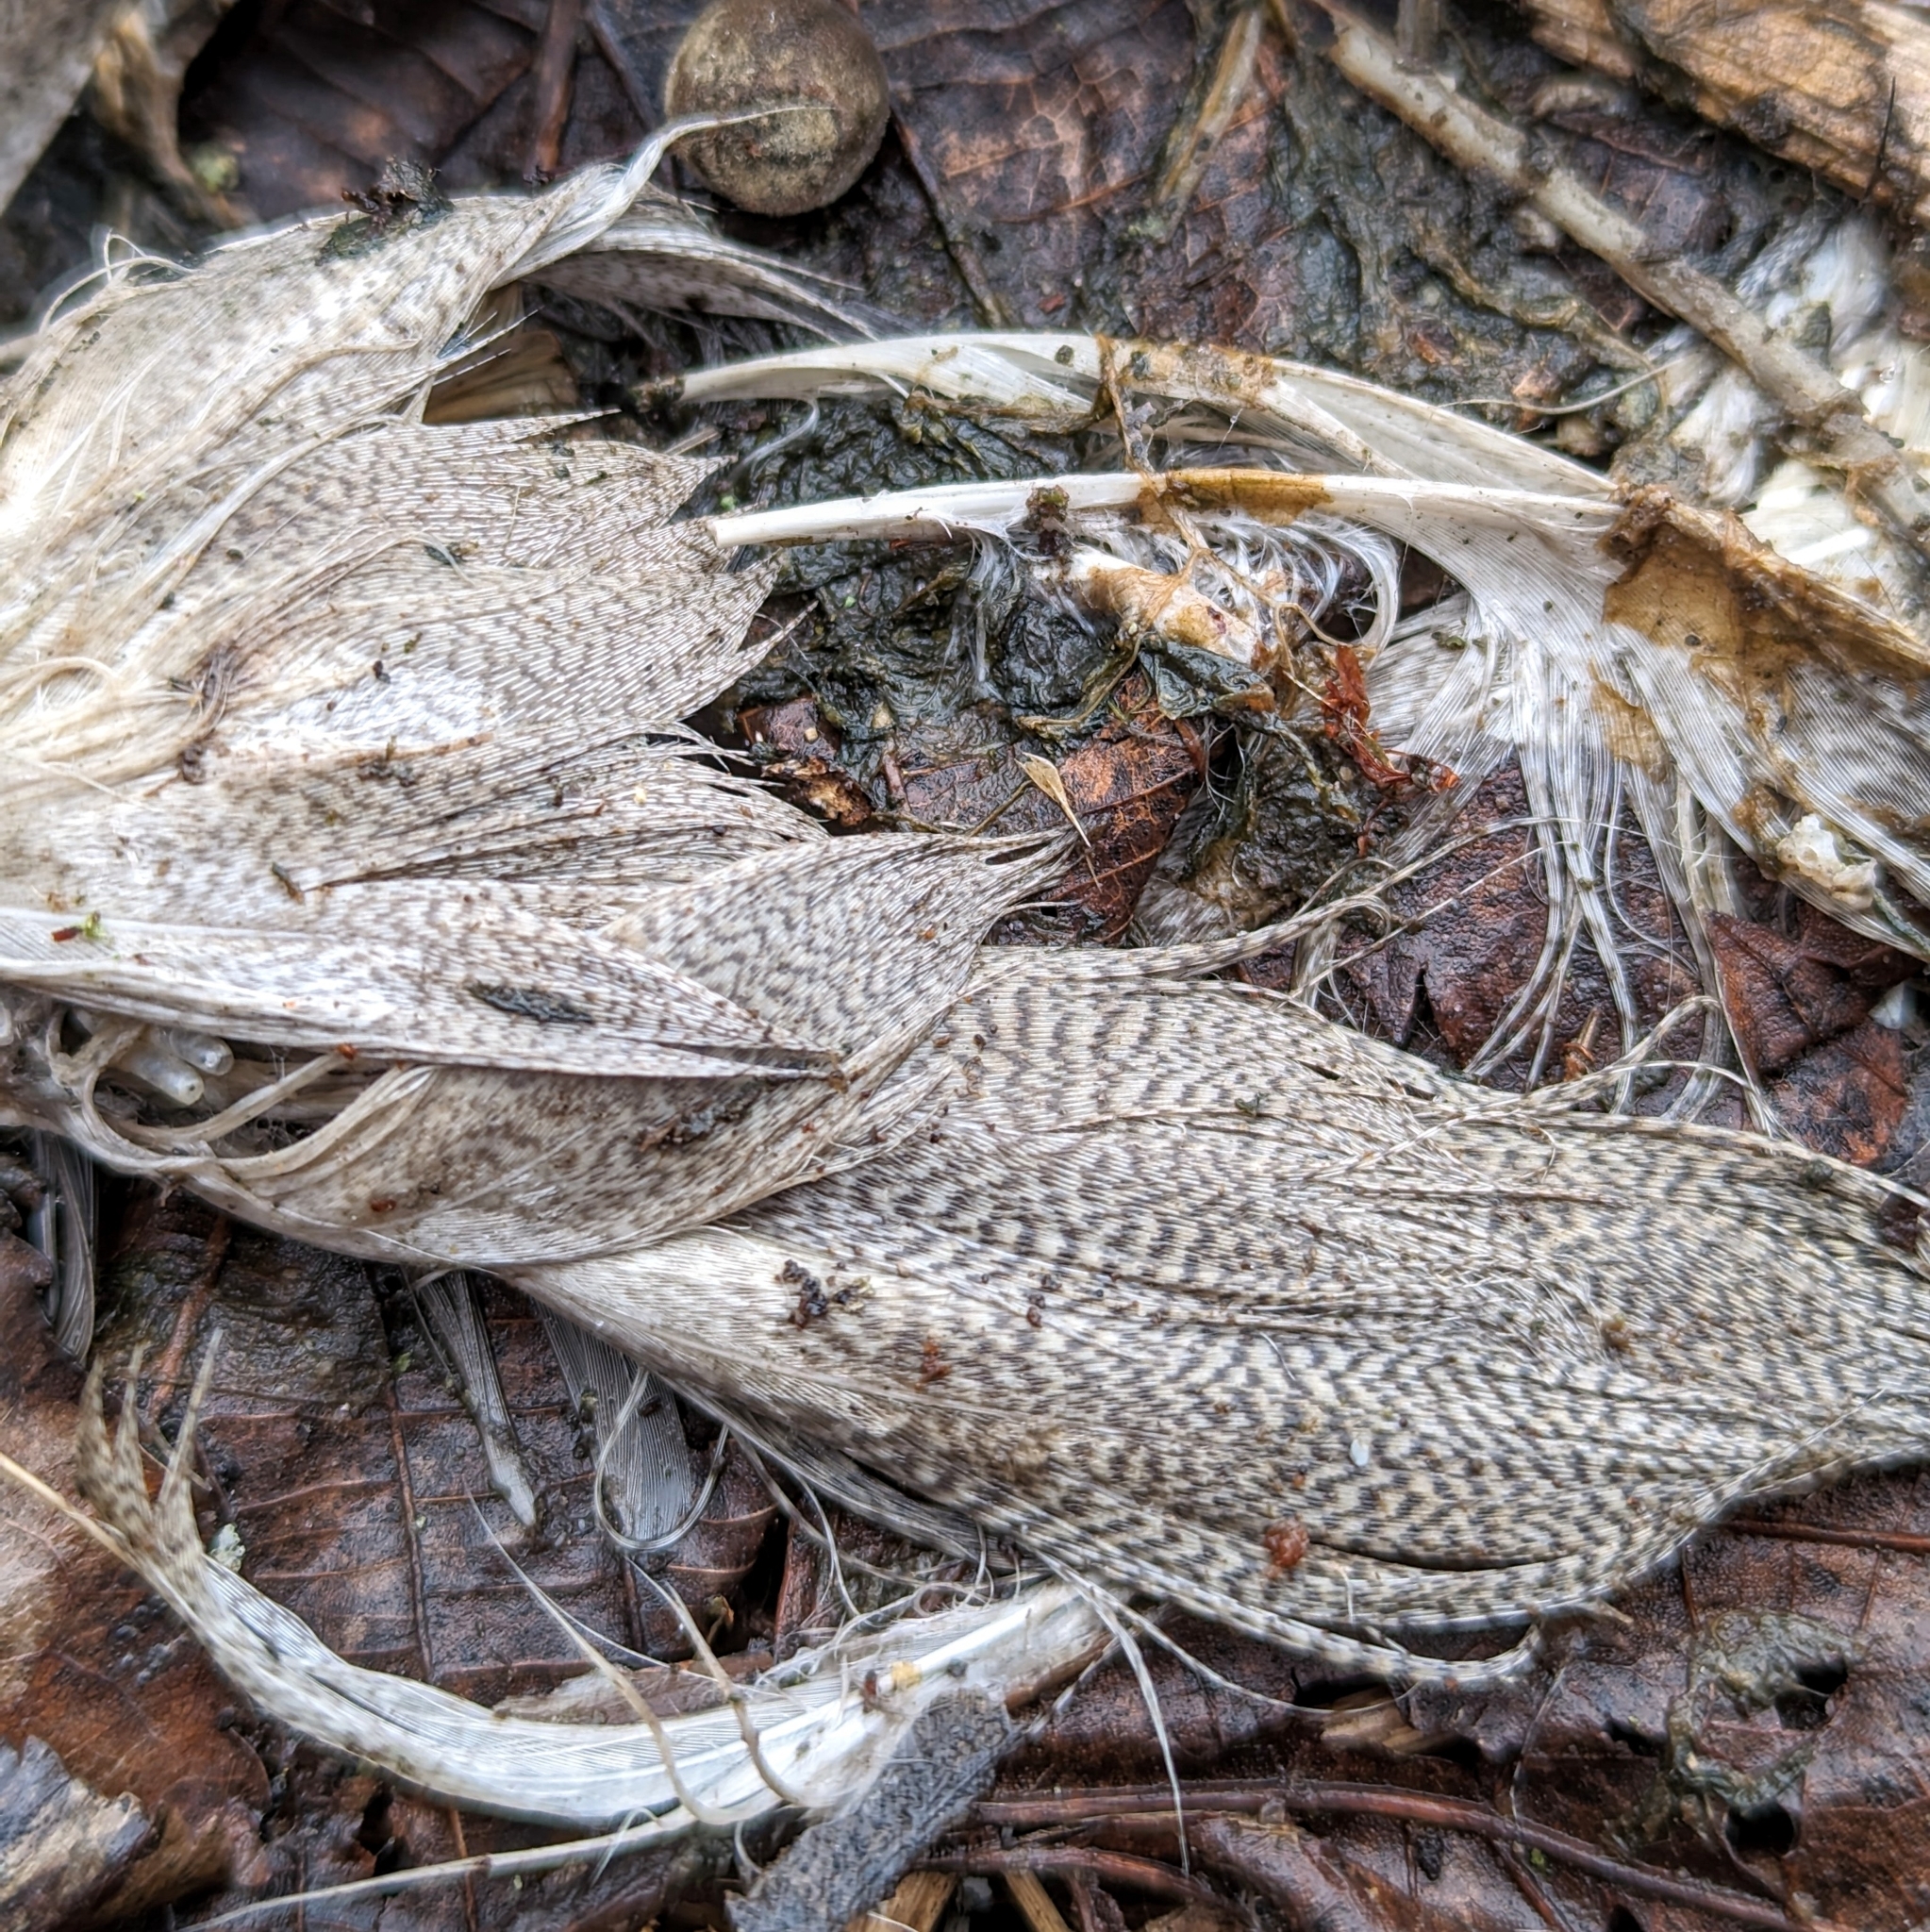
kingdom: Animalia
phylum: Chordata
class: Aves
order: Anseriformes
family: Anatidae
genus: Anas
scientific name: Anas platyrhynchos
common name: Mallard
